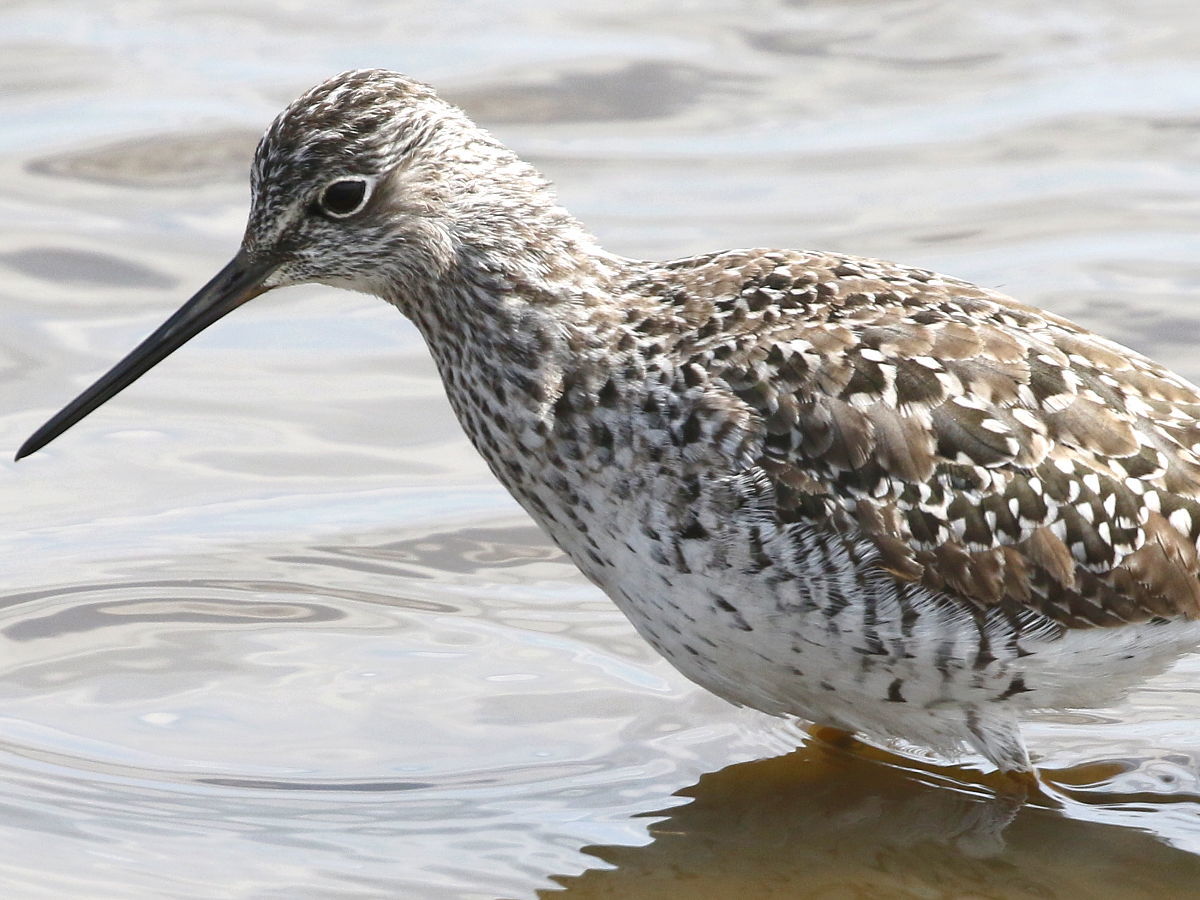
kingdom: Animalia
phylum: Chordata
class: Aves
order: Charadriiformes
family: Scolopacidae
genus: Tringa
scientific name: Tringa melanoleuca
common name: Greater yellowlegs
